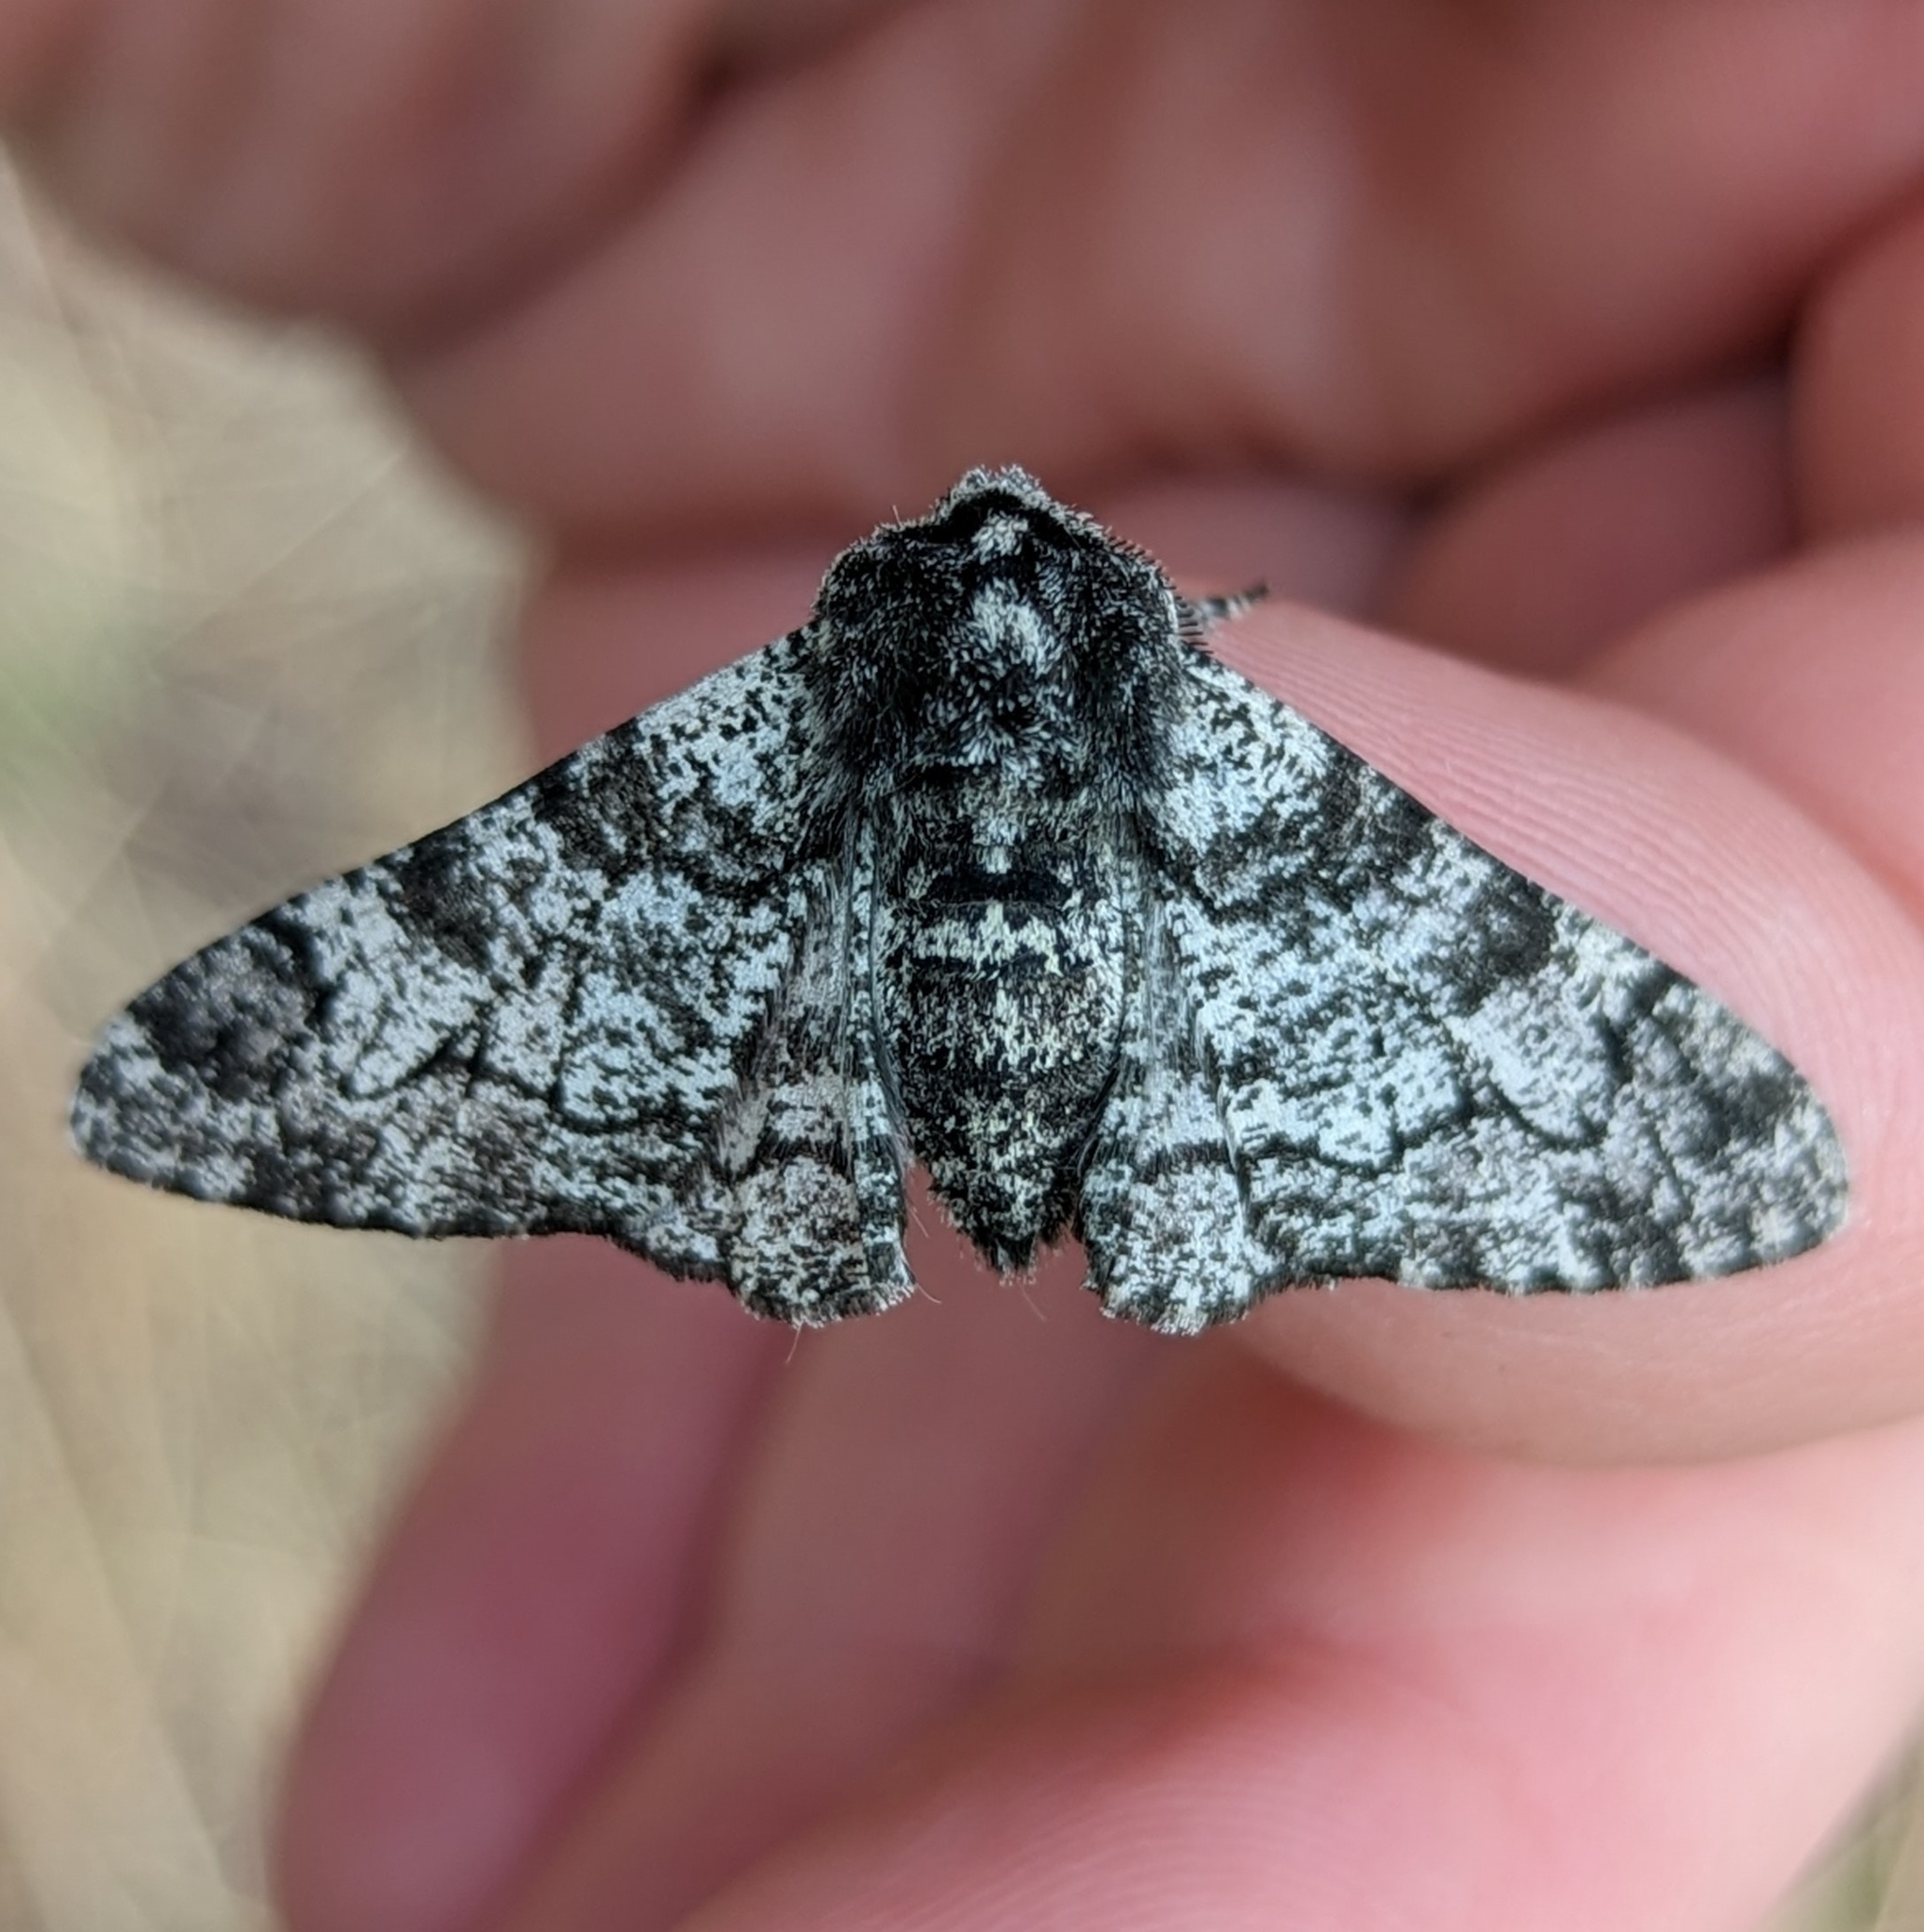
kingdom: Animalia
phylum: Arthropoda
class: Insecta
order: Lepidoptera
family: Geometridae
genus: Biston
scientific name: Biston betularia
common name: Peppered moth
